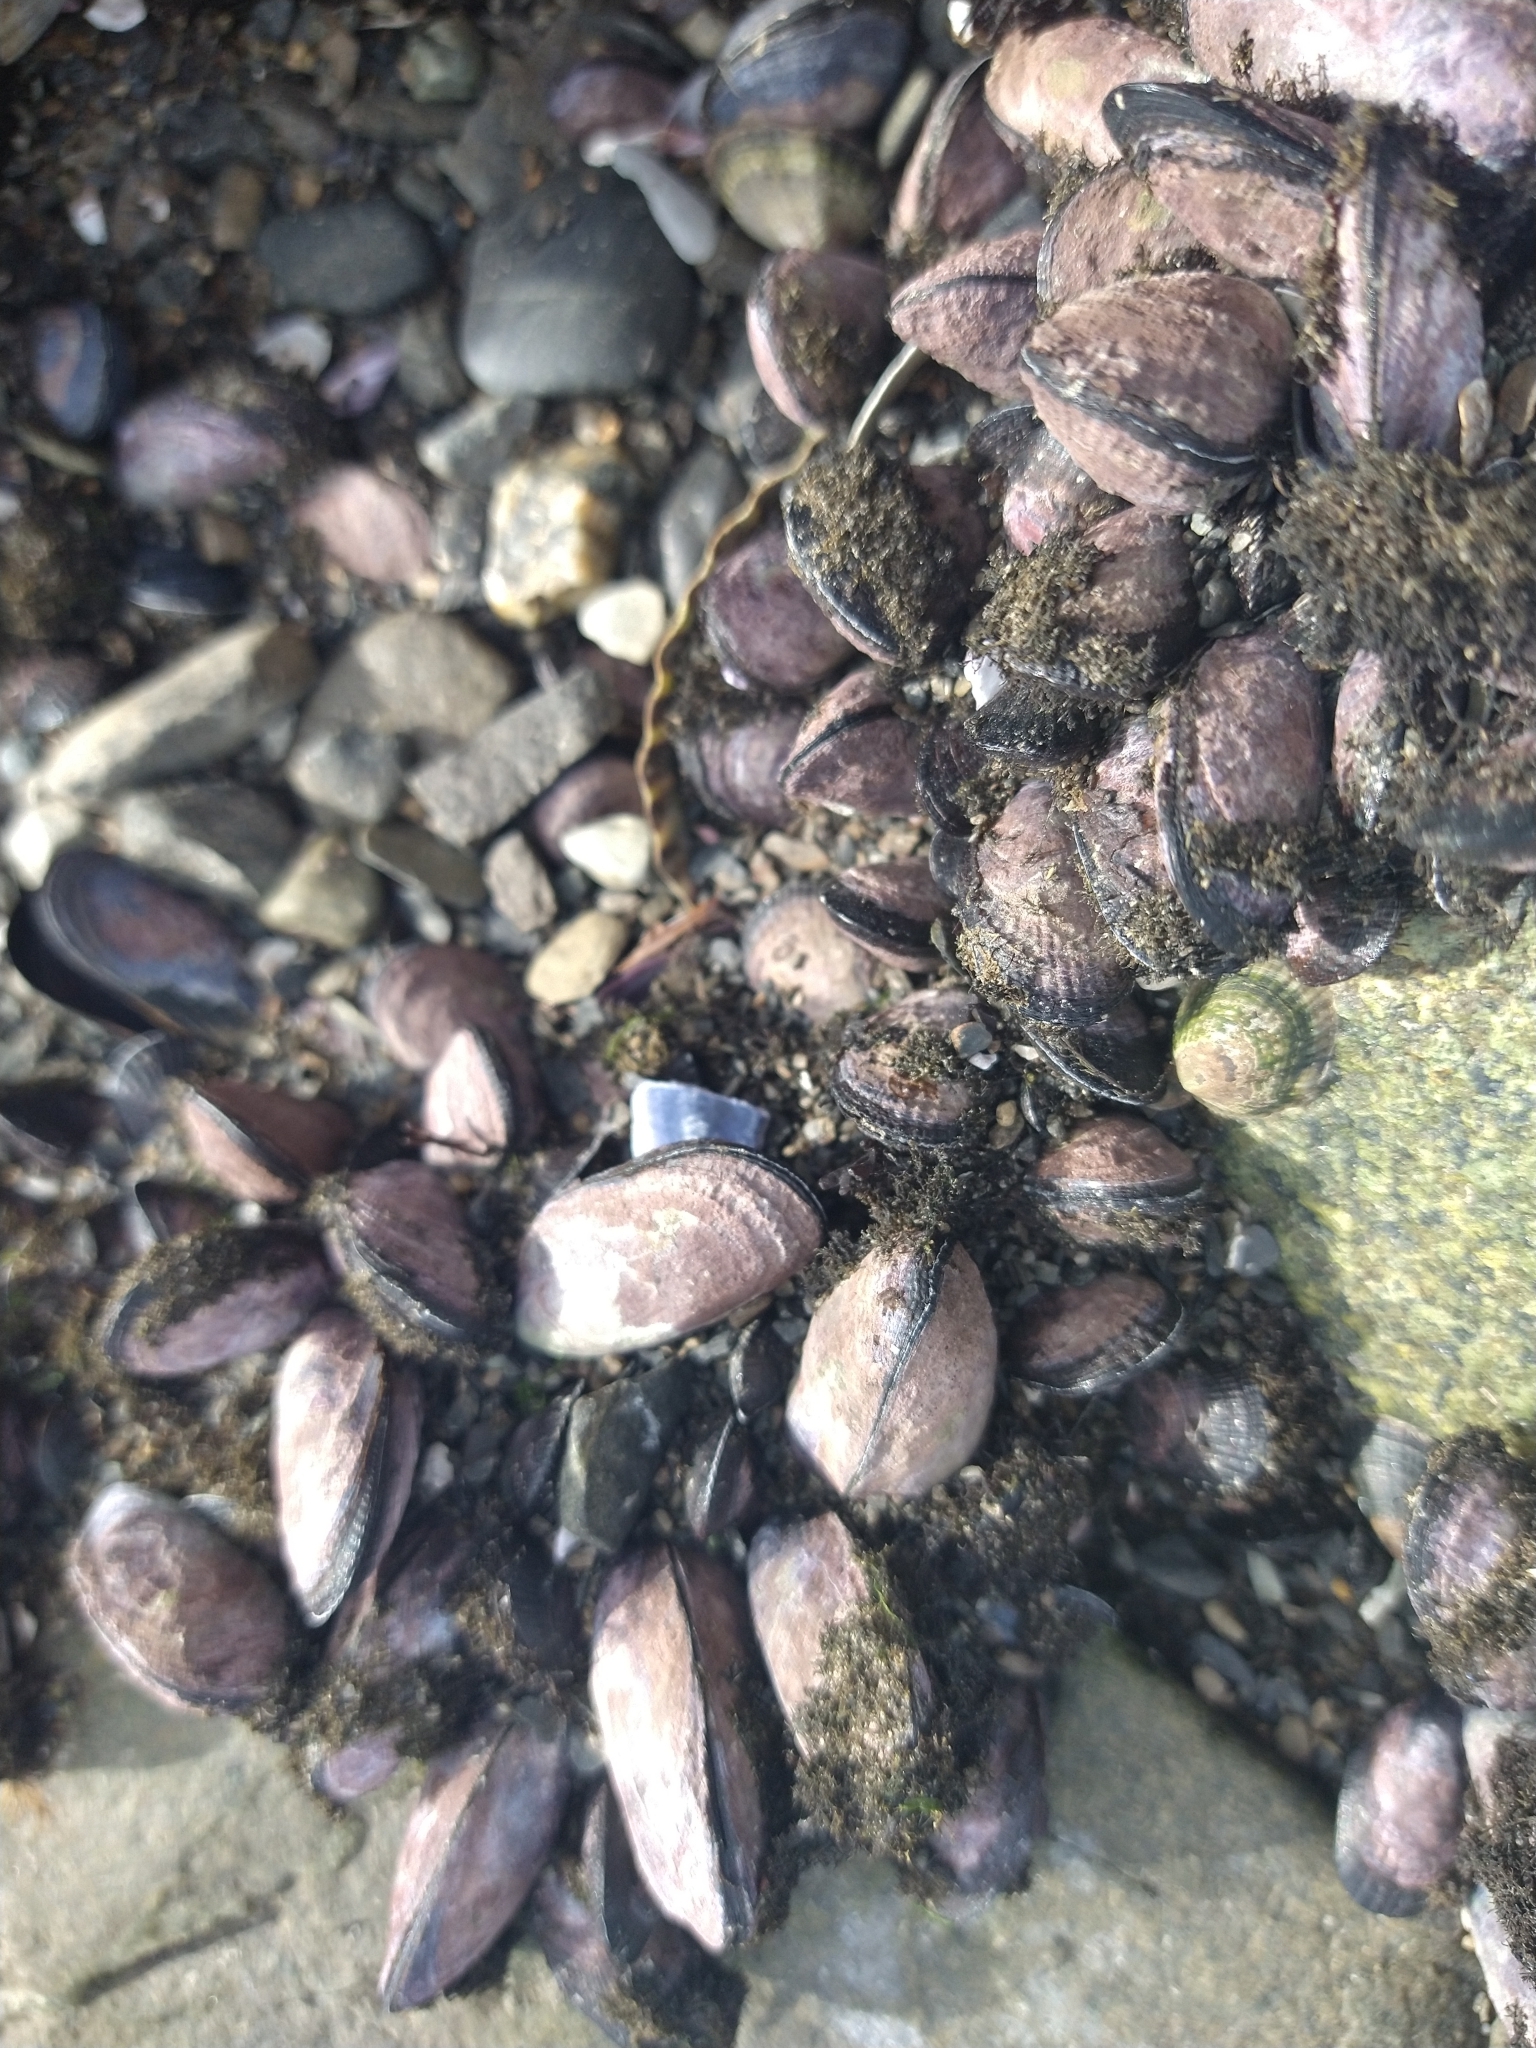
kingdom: Animalia
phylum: Mollusca
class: Bivalvia
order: Mytilida
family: Mytilidae
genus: Perumytilus
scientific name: Perumytilus purpuratus
